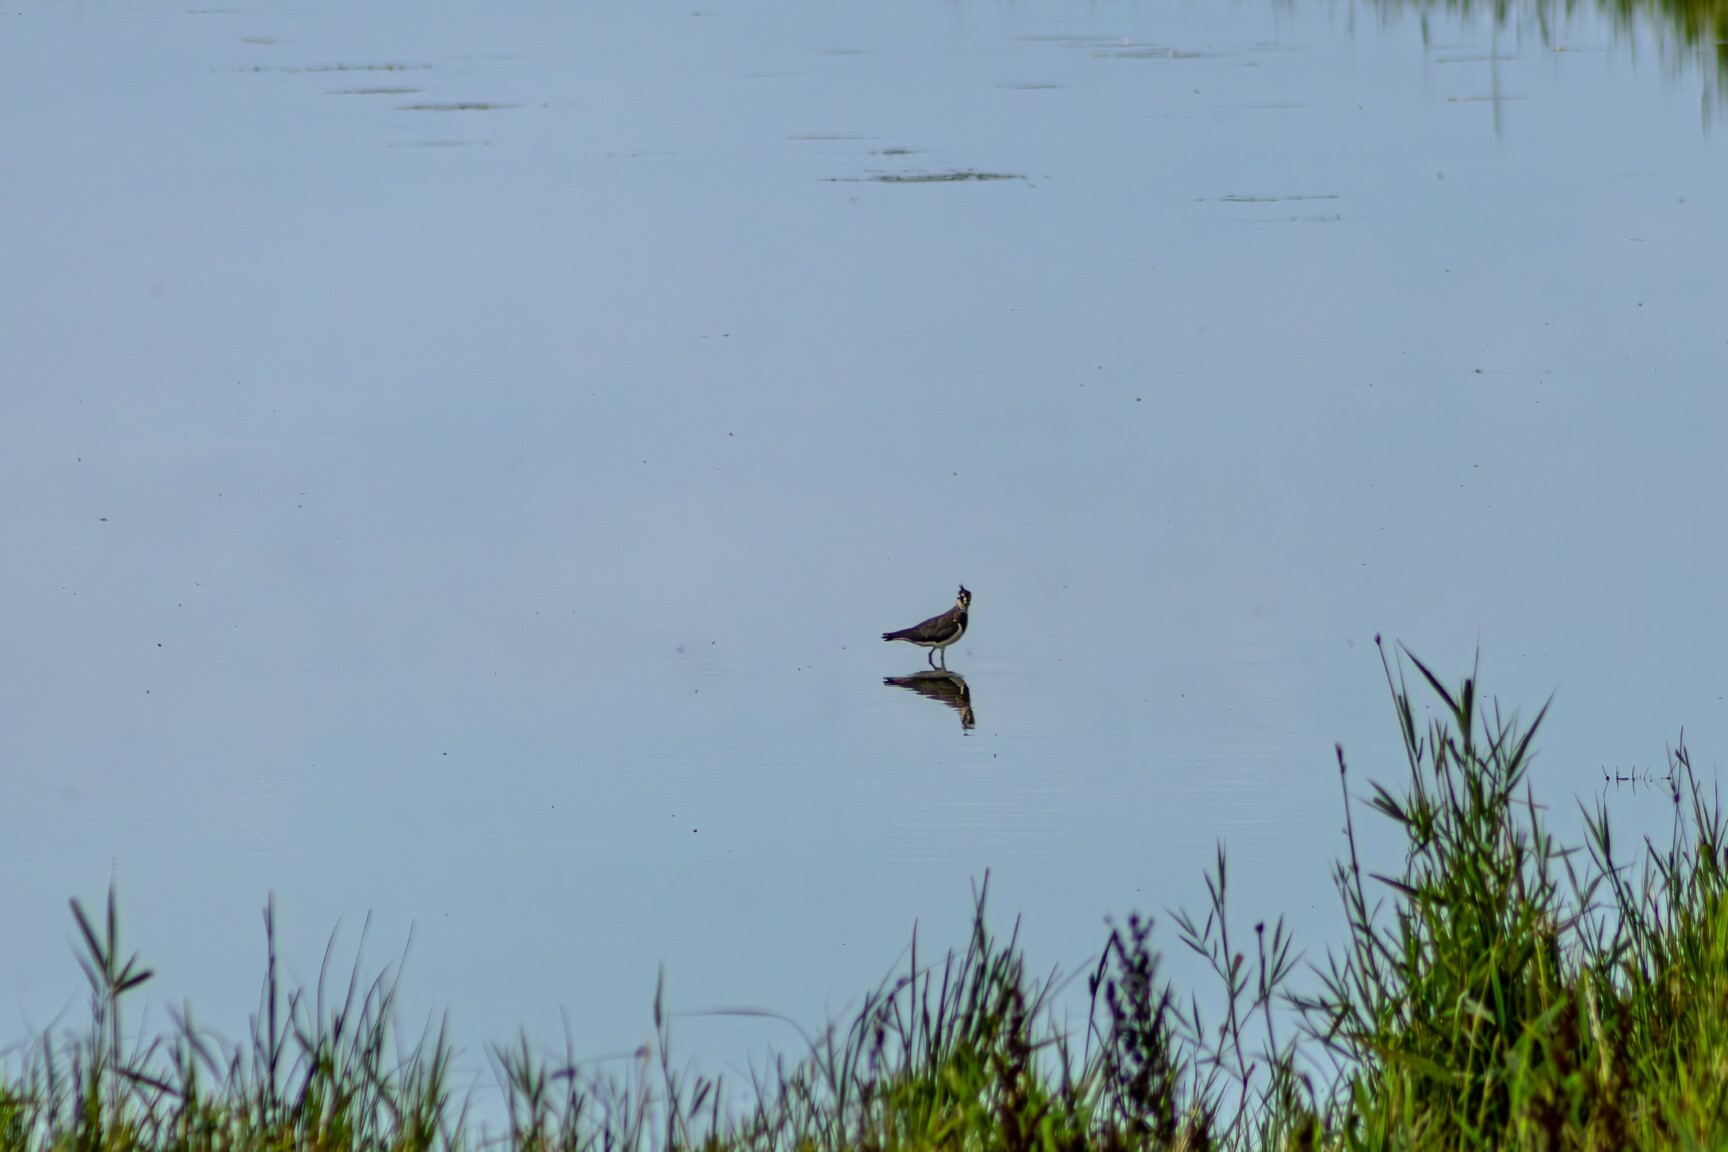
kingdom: Animalia
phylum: Chordata
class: Aves
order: Charadriiformes
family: Charadriidae
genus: Vanellus
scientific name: Vanellus vanellus
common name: Northern lapwing
